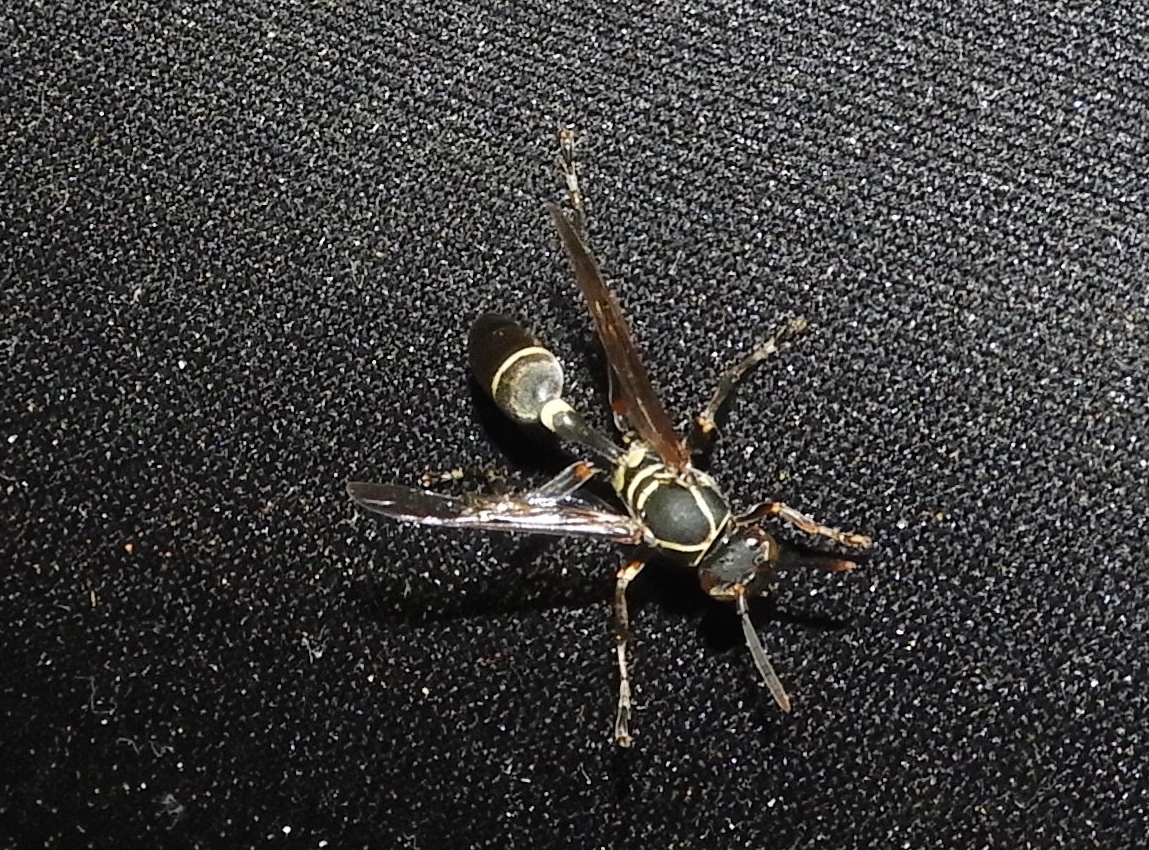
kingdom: Animalia
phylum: Arthropoda
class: Insecta
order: Hymenoptera
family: Vespidae
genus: Mischocyttarus
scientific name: Mischocyttarus pallidipectus
